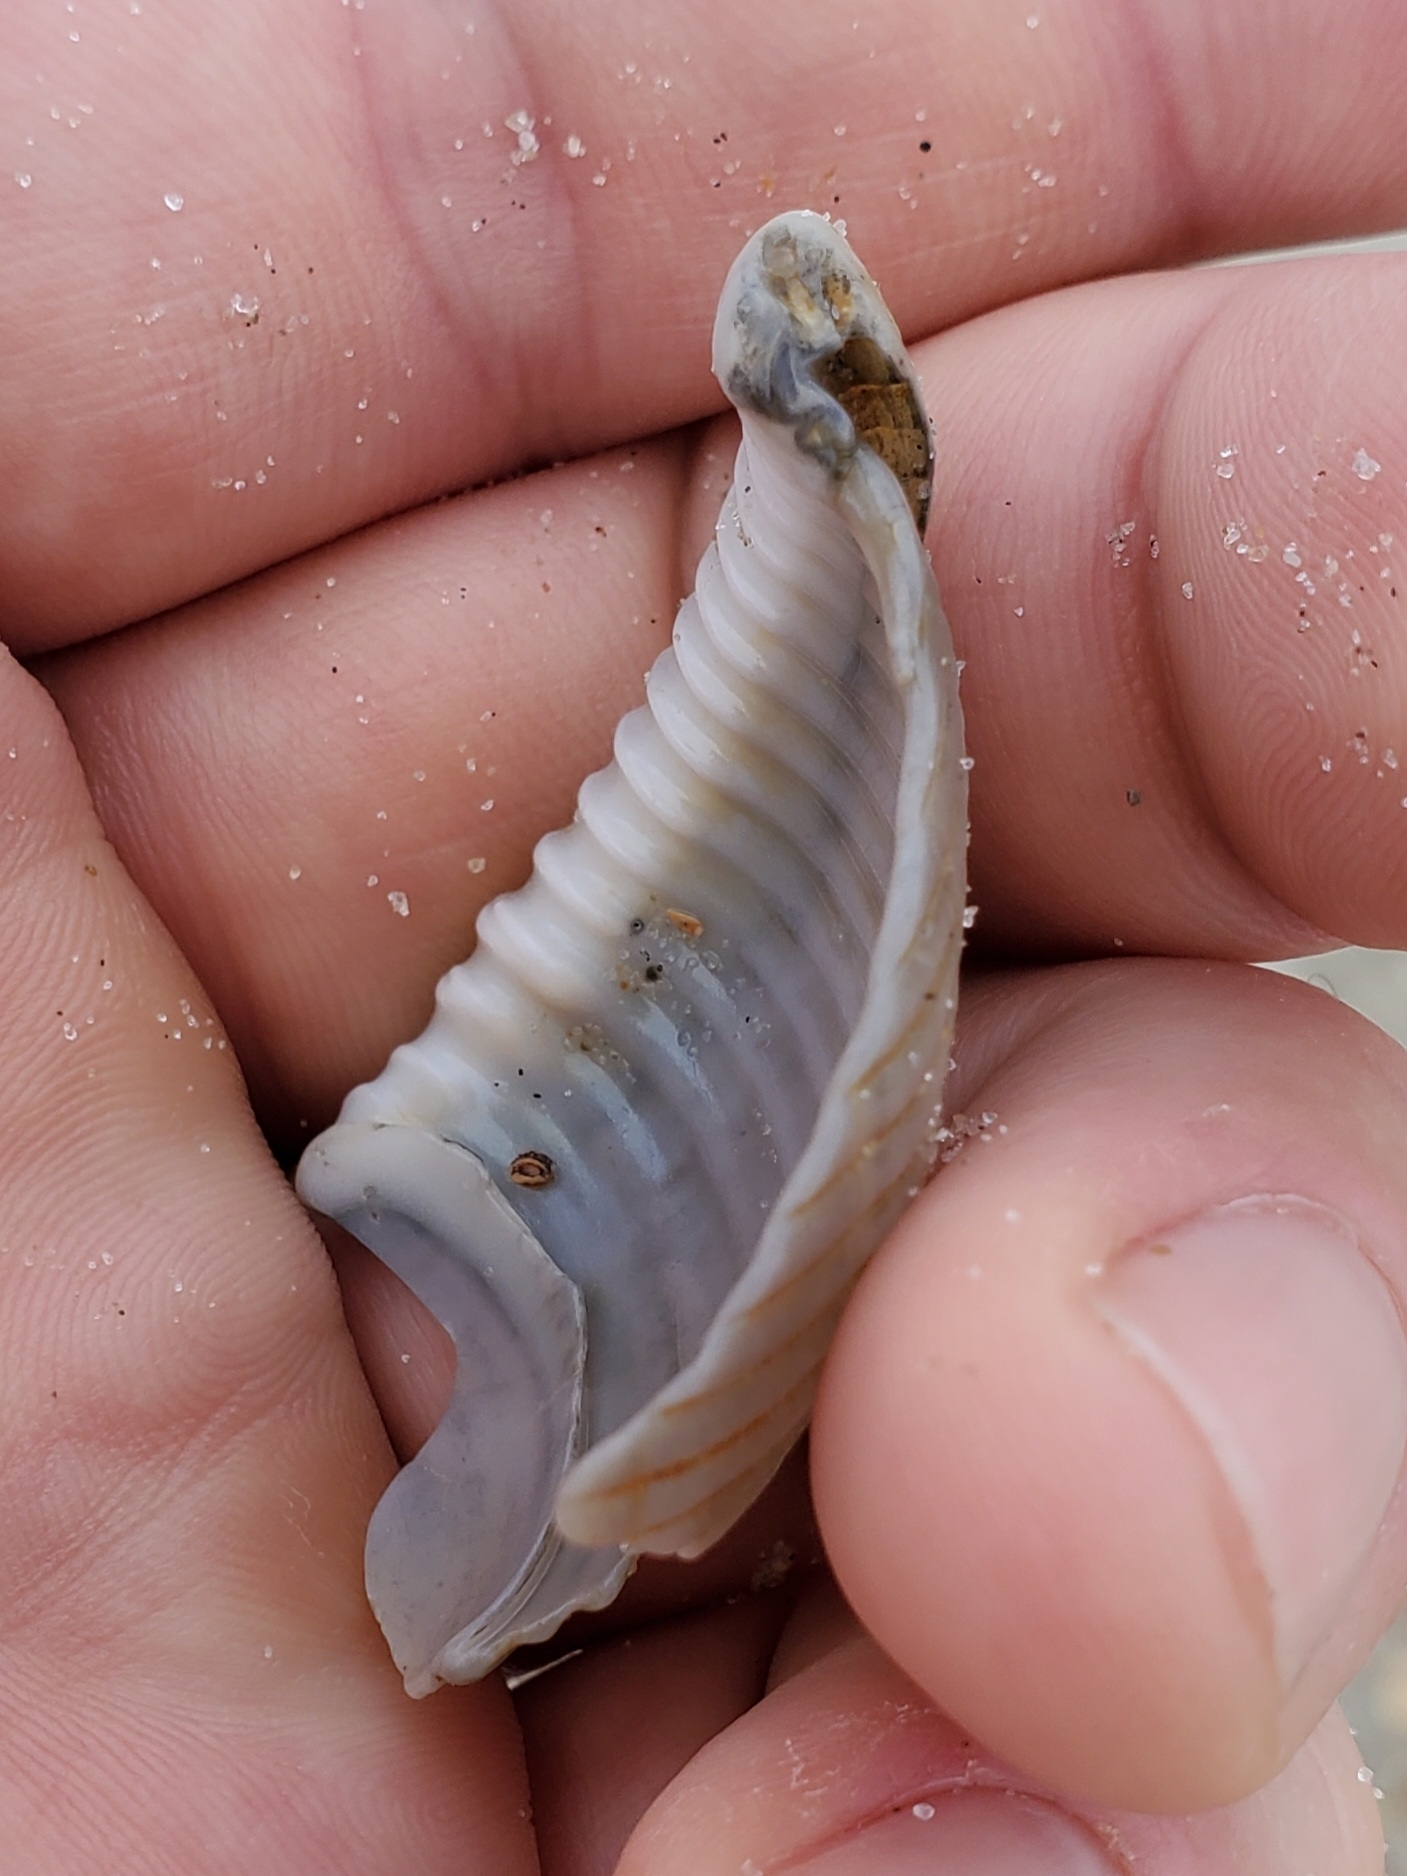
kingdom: Animalia
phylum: Mollusca
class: Gastropoda
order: Littorinimorpha
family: Cassidae
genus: Semicassis
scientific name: Semicassis granulata
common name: Scotch bonnet
